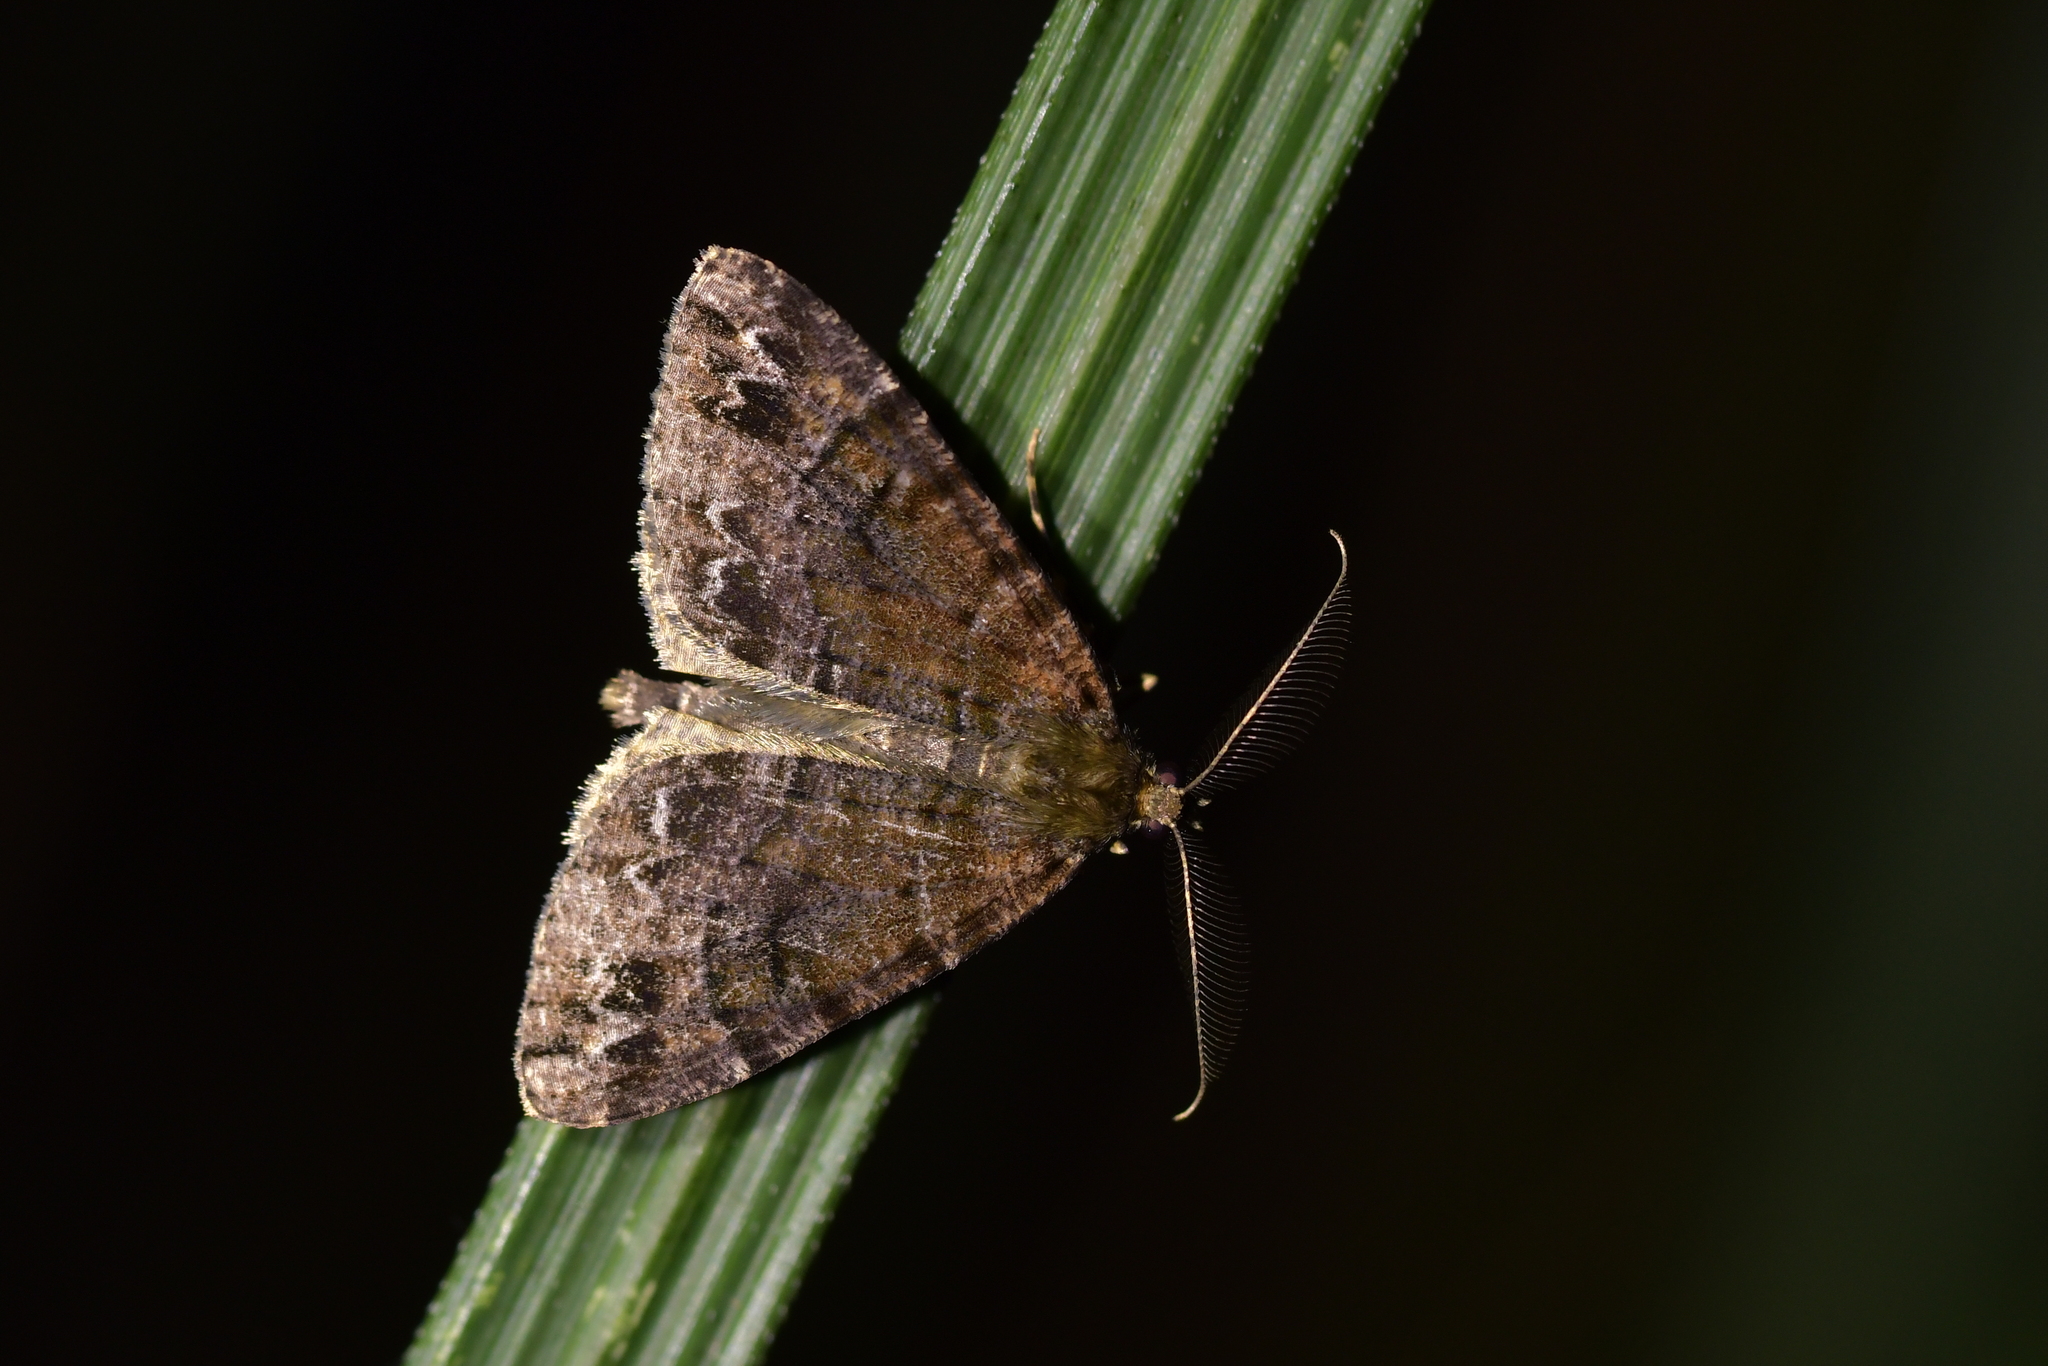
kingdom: Animalia
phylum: Arthropoda
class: Insecta
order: Lepidoptera
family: Geometridae
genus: Pseudocoremia
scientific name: Pseudocoremia productata
